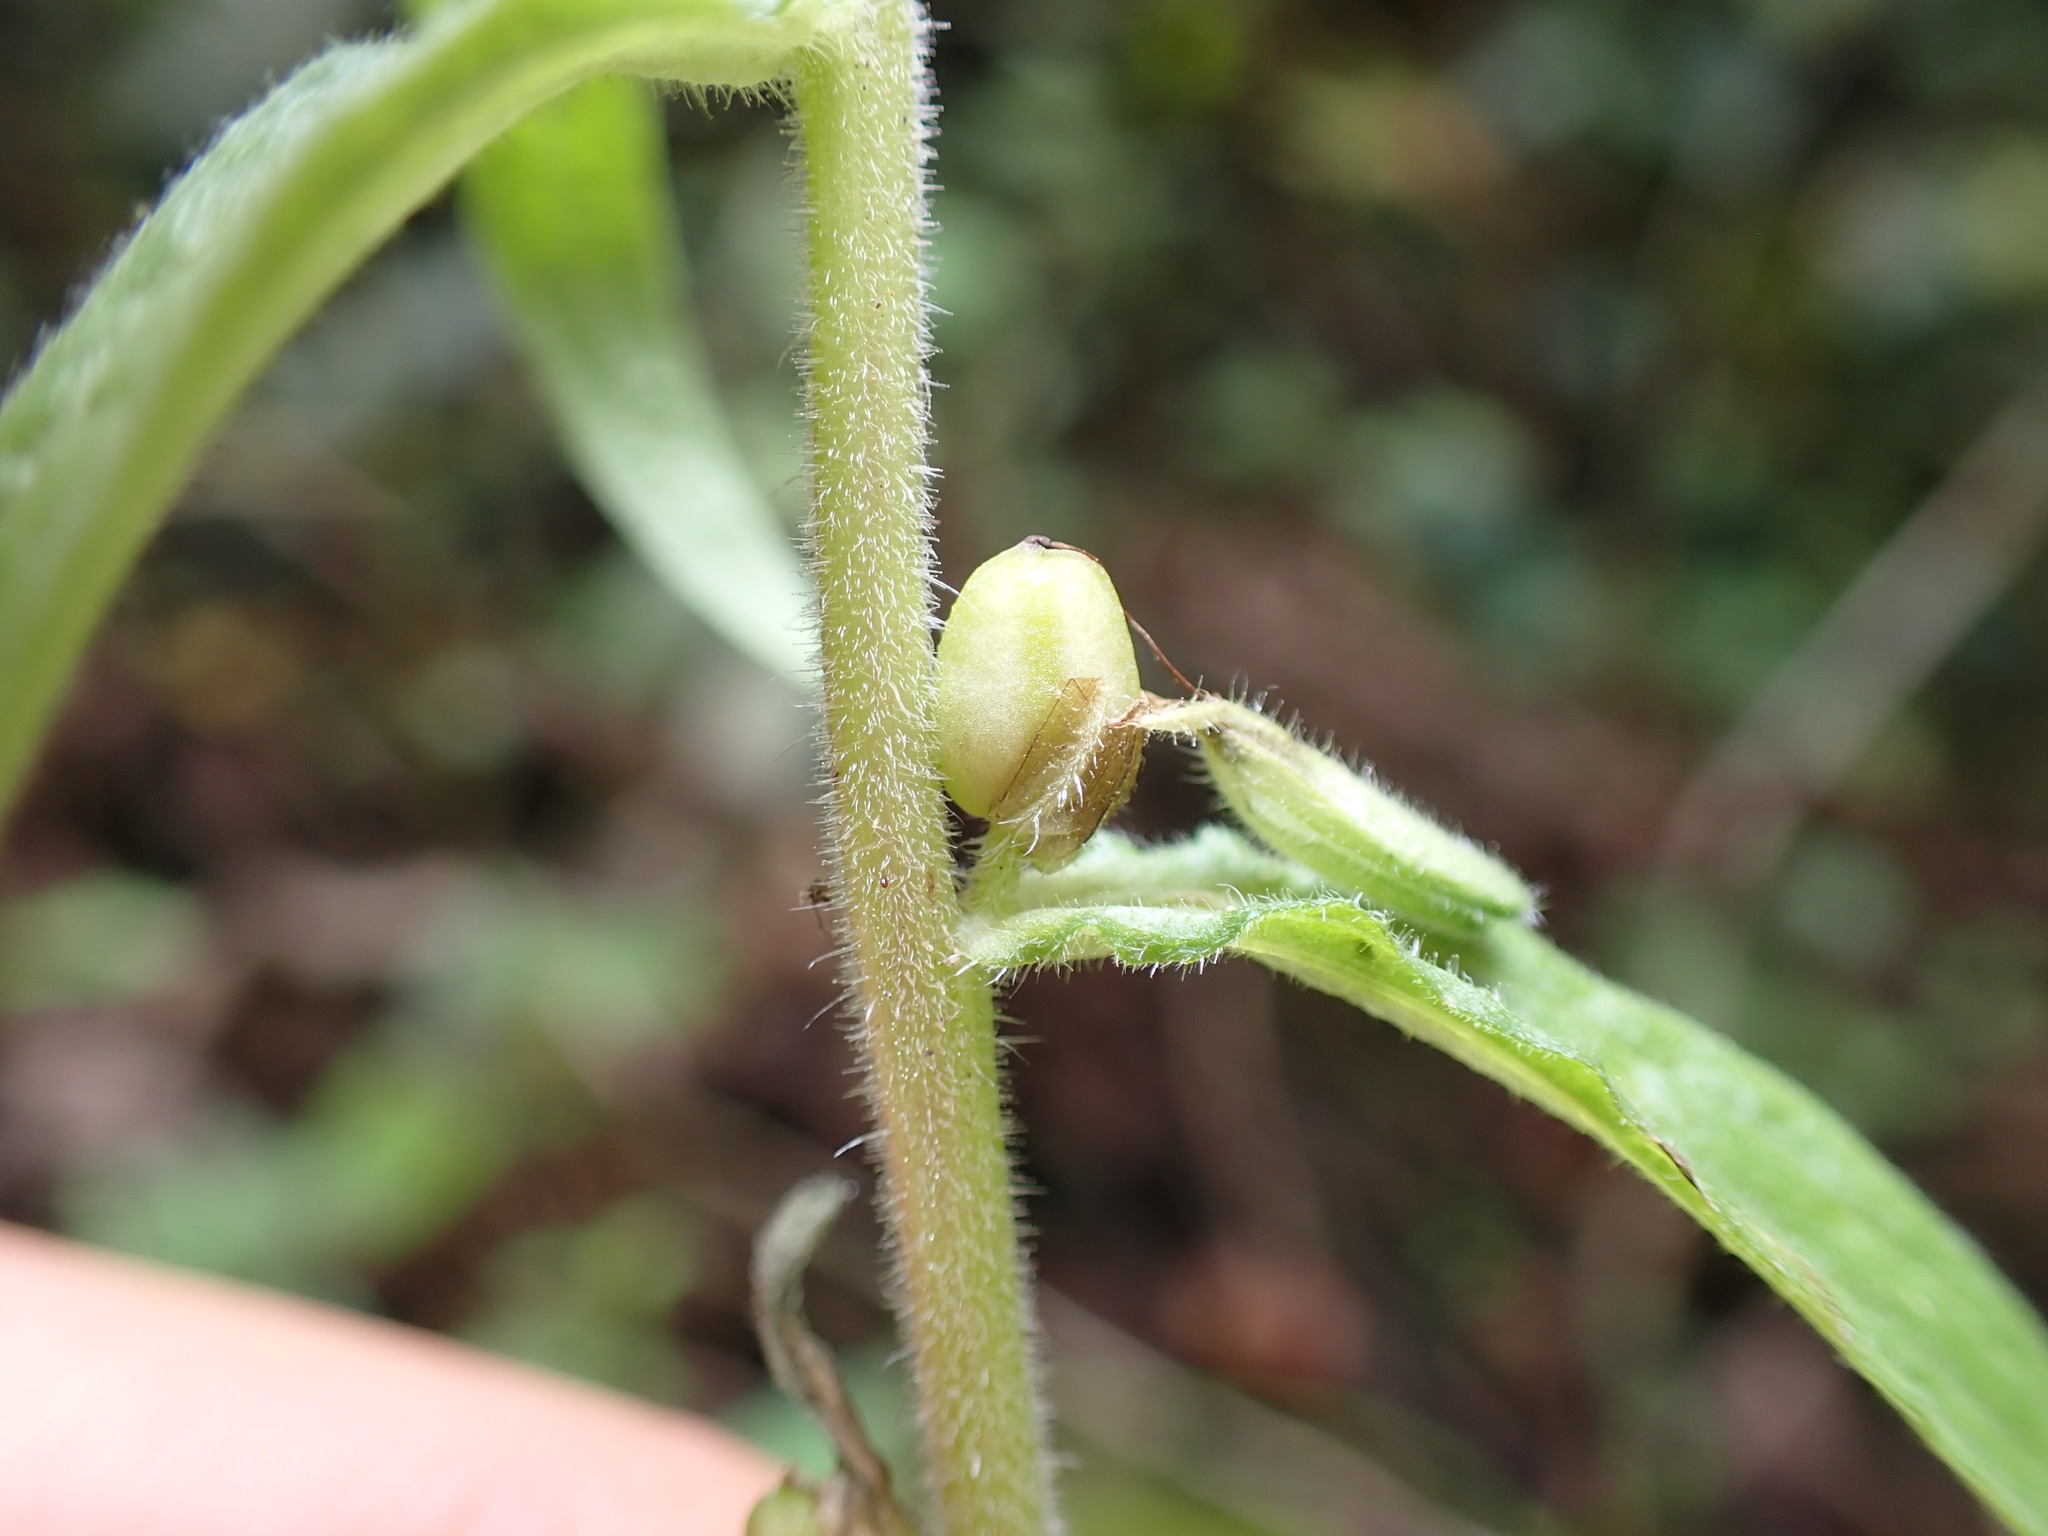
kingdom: Plantae
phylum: Tracheophyta
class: Magnoliopsida
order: Lamiales
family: Orobanchaceae
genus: Castilleja
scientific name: Castilleja arvensis
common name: Indian paintbrush
